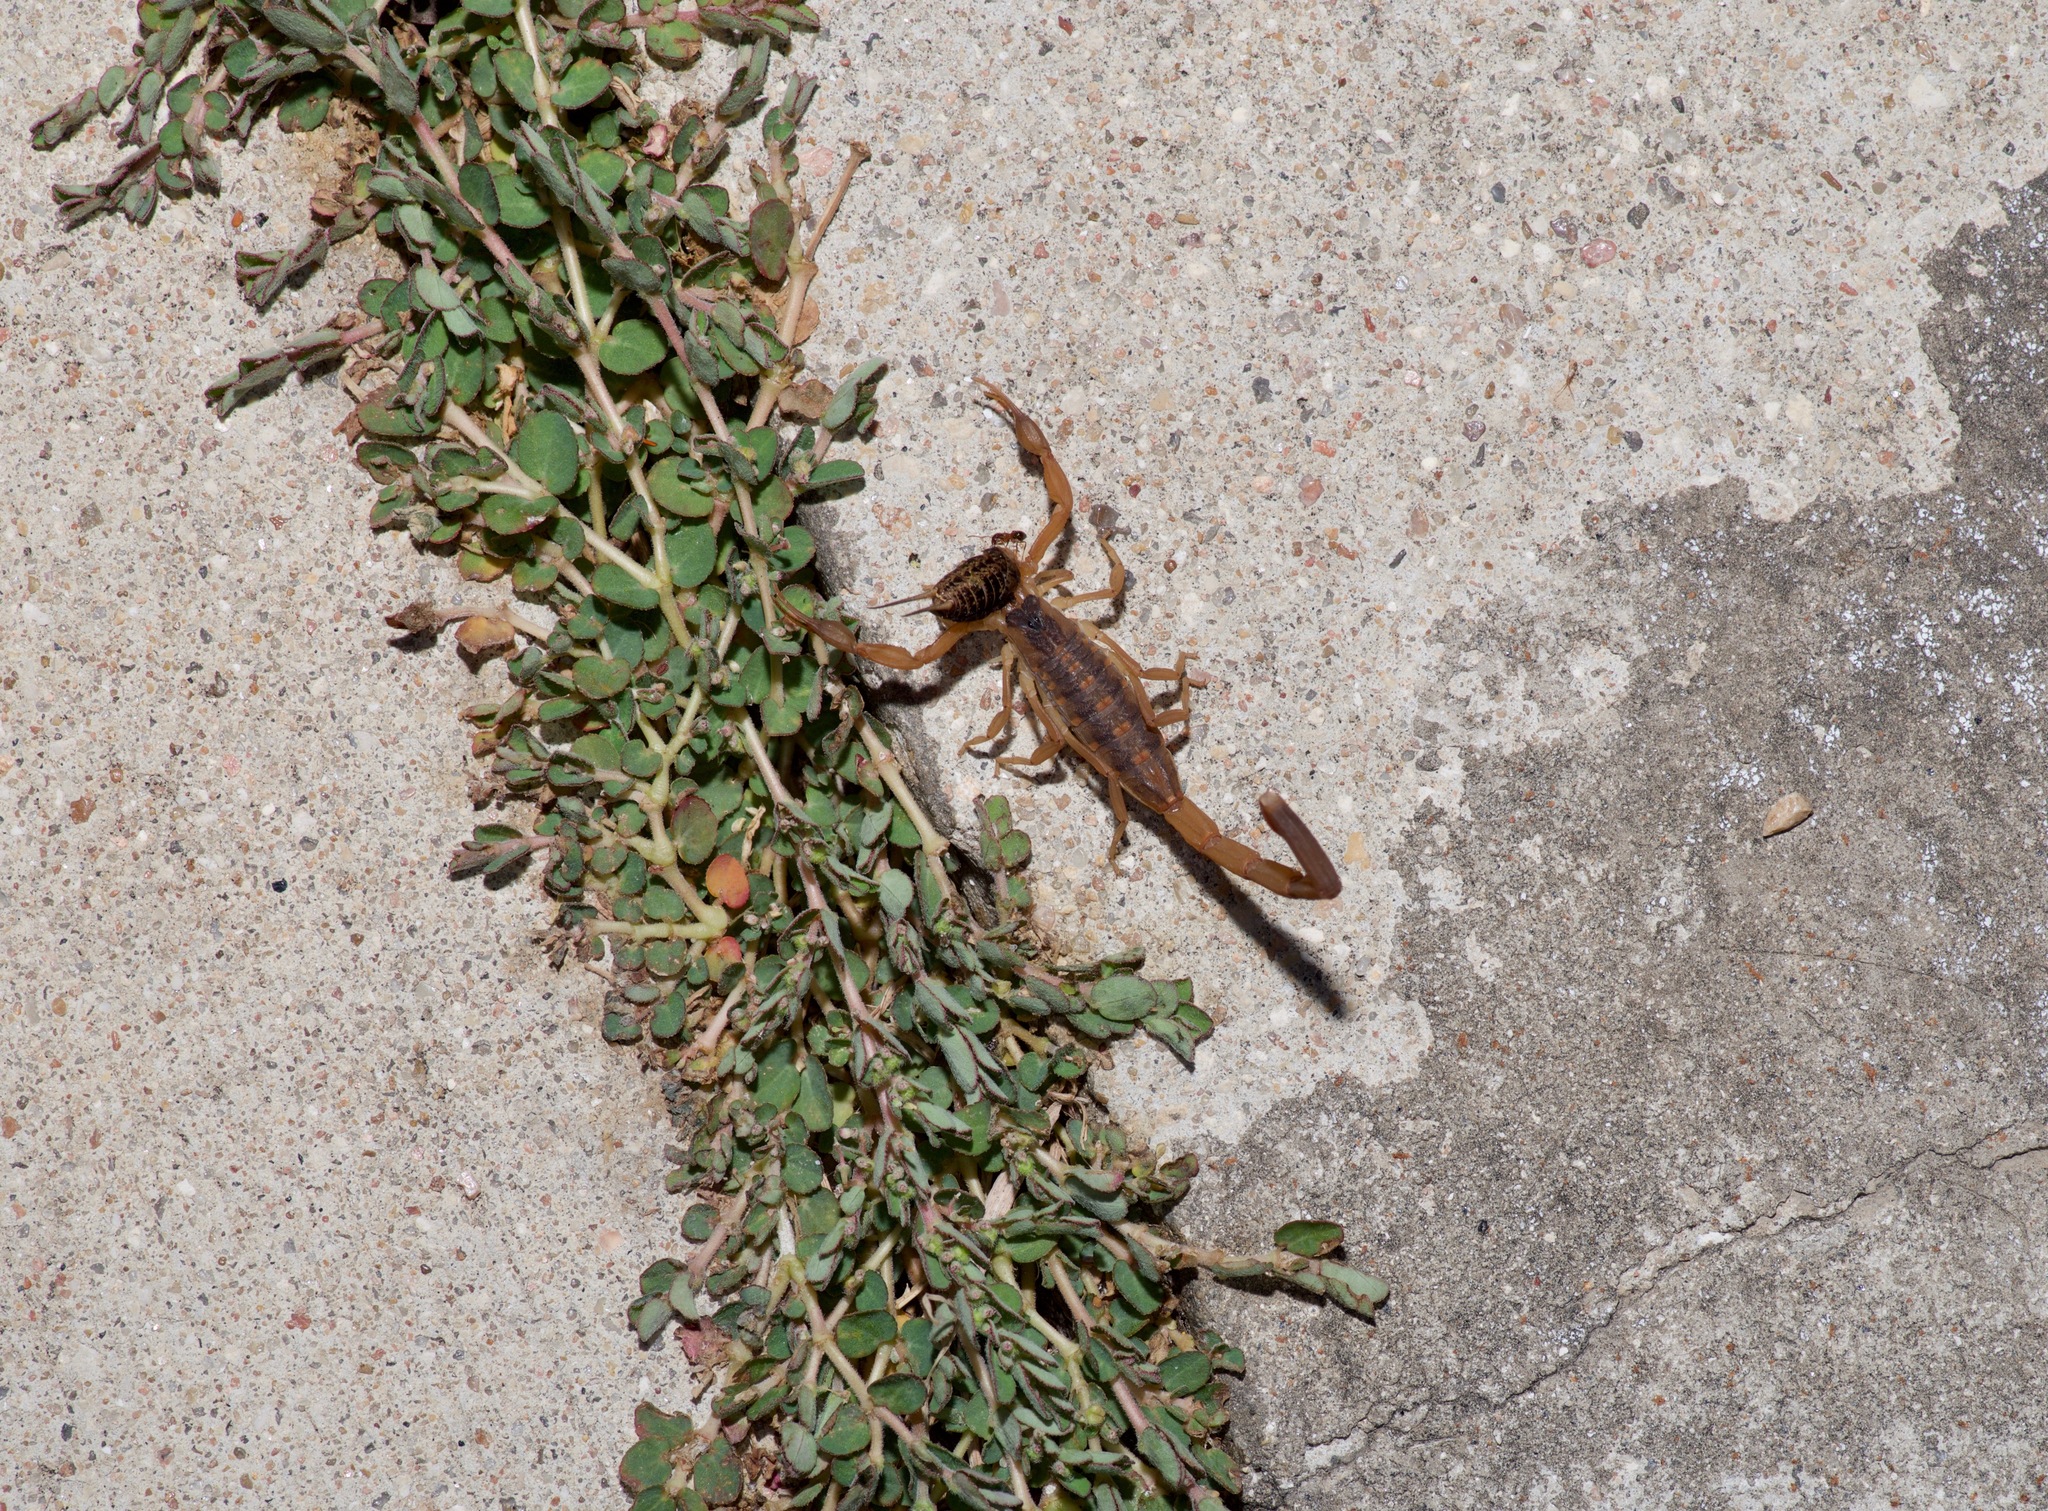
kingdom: Animalia
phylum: Arthropoda
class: Arachnida
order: Scorpiones
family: Buthidae
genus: Centruroides
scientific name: Centruroides vittatus
